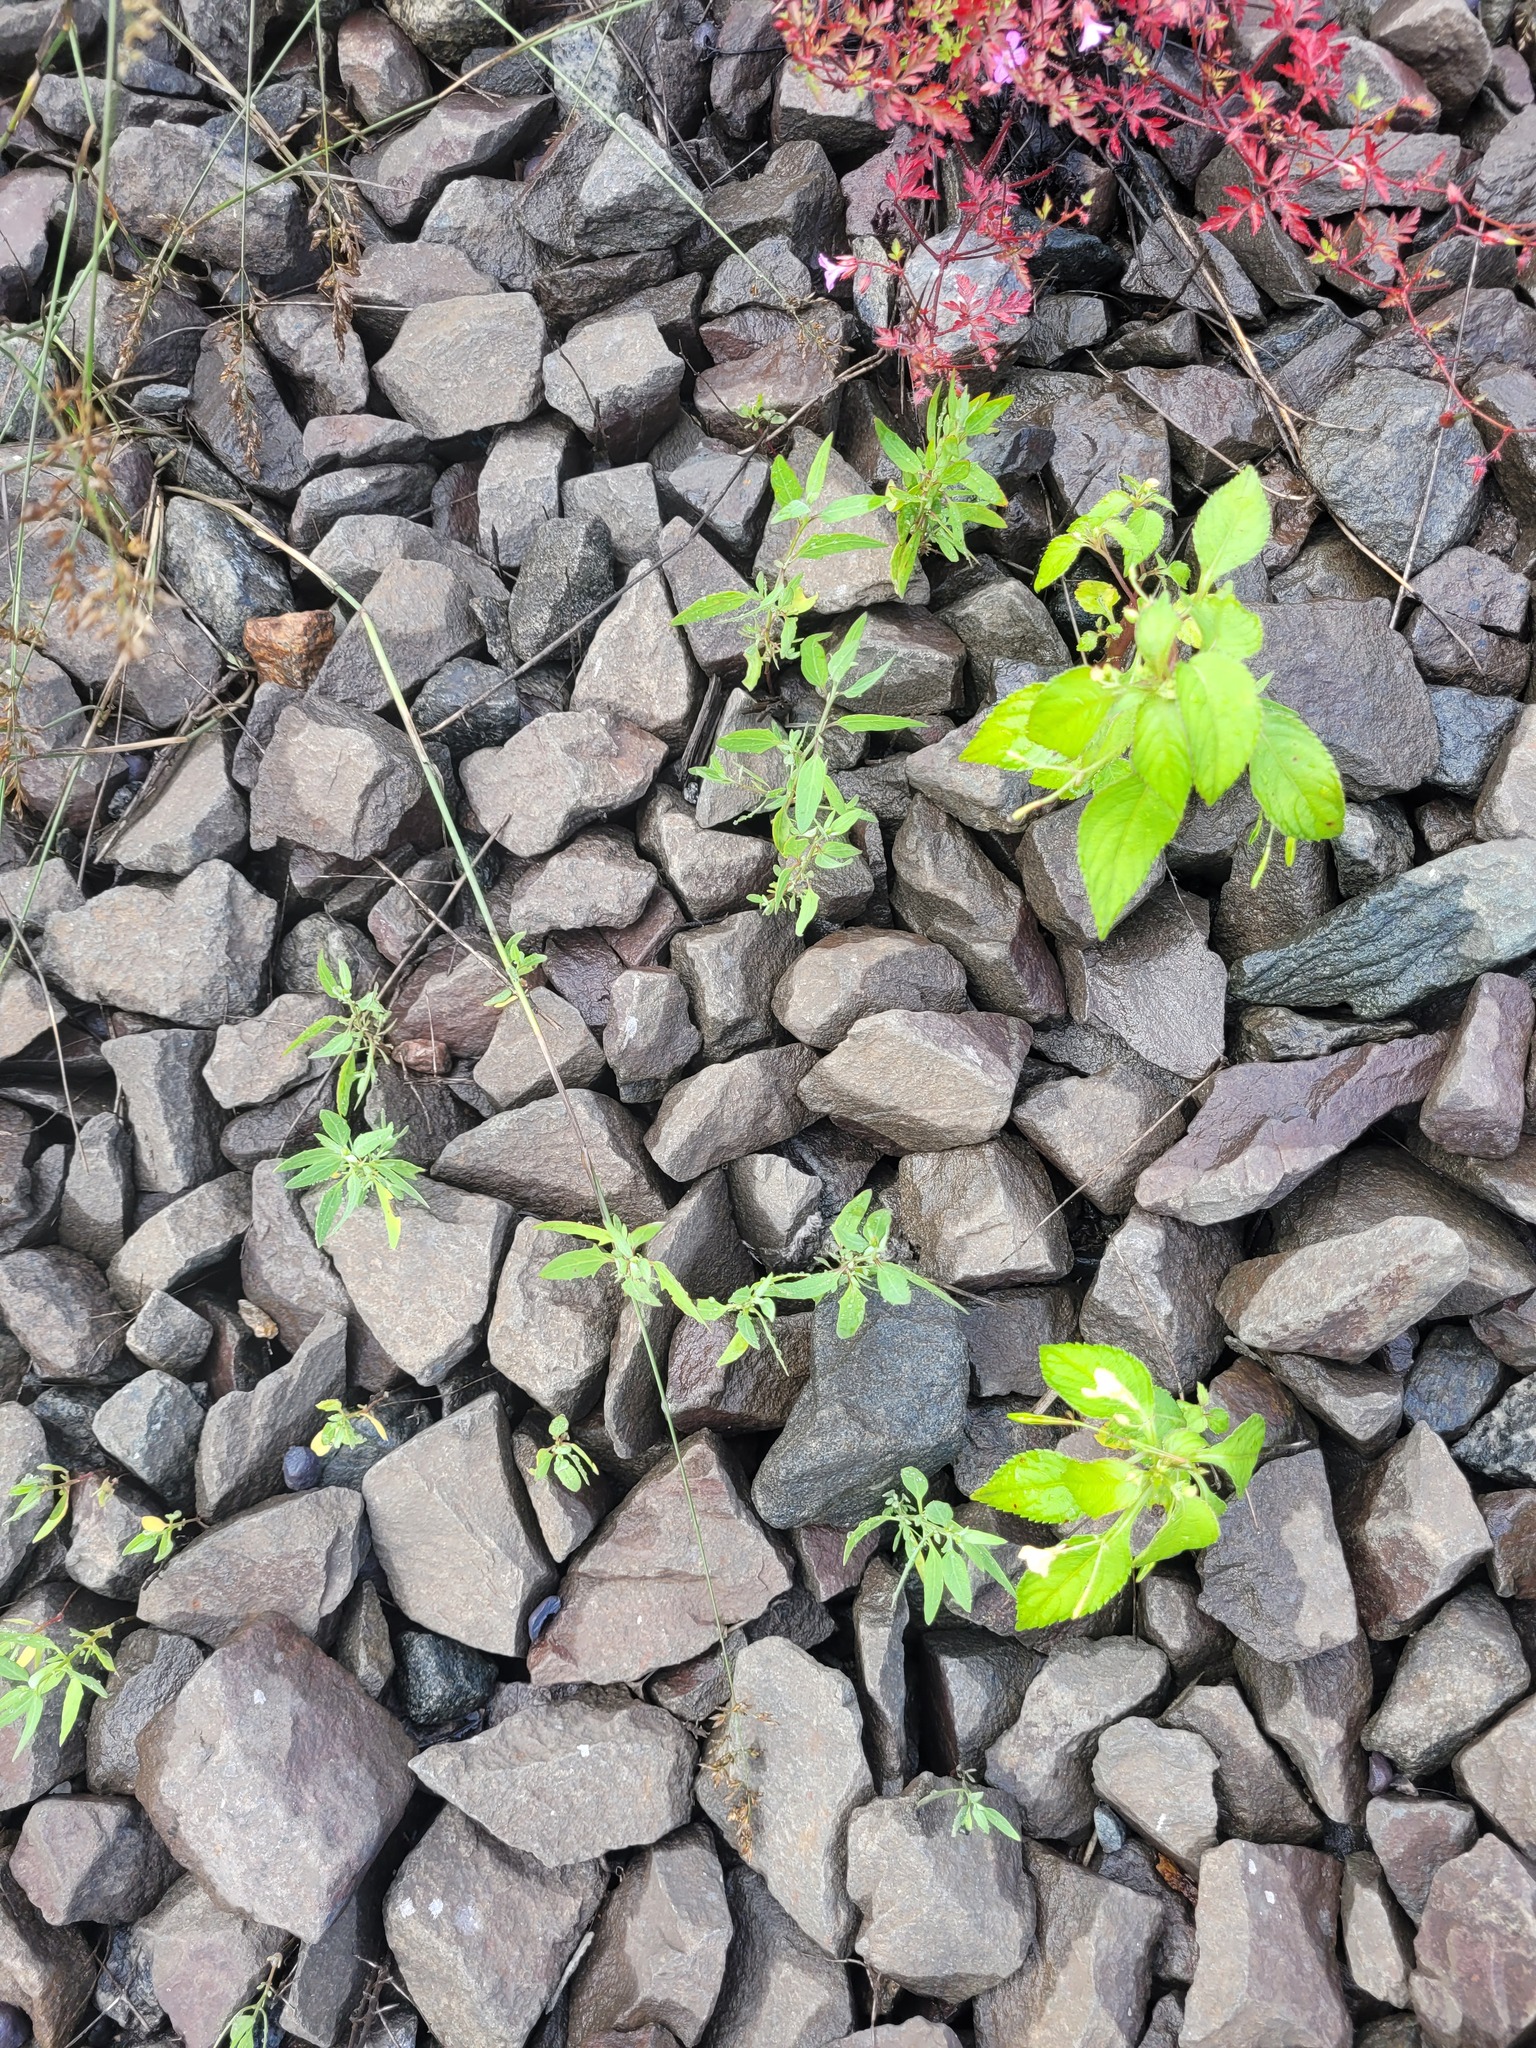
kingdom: Plantae
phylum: Tracheophyta
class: Magnoliopsida
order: Ericales
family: Balsaminaceae
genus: Impatiens
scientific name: Impatiens parviflora
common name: Small balsam
